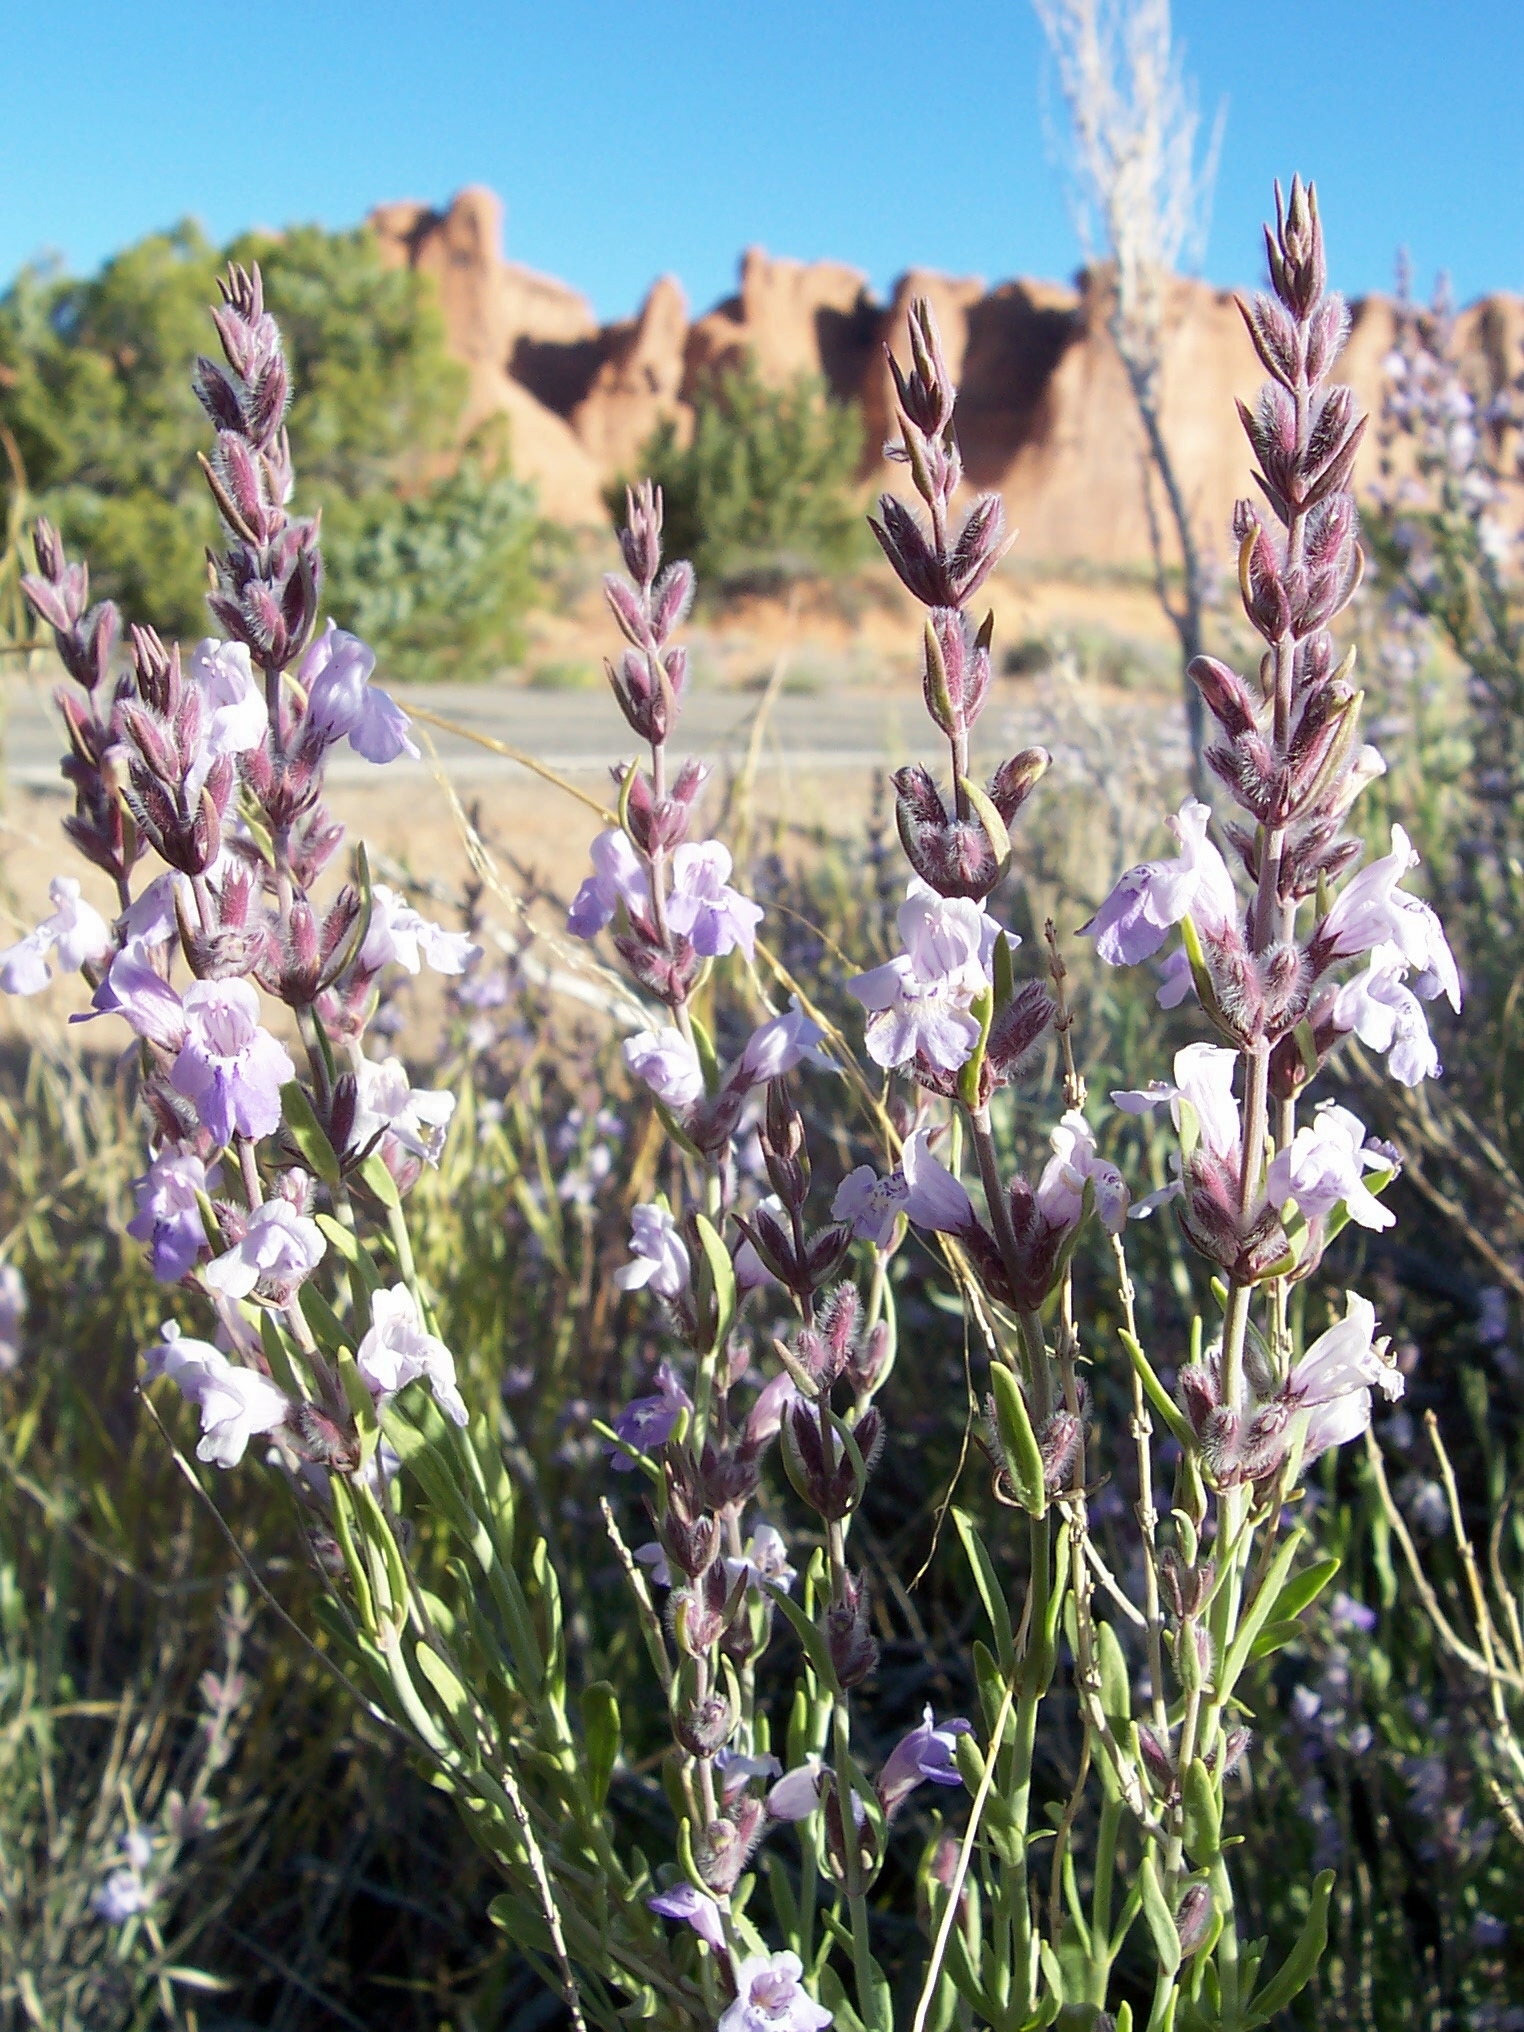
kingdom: Plantae
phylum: Tracheophyta
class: Magnoliopsida
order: Lamiales
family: Lamiaceae
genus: Poliomintha
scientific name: Poliomintha incana
